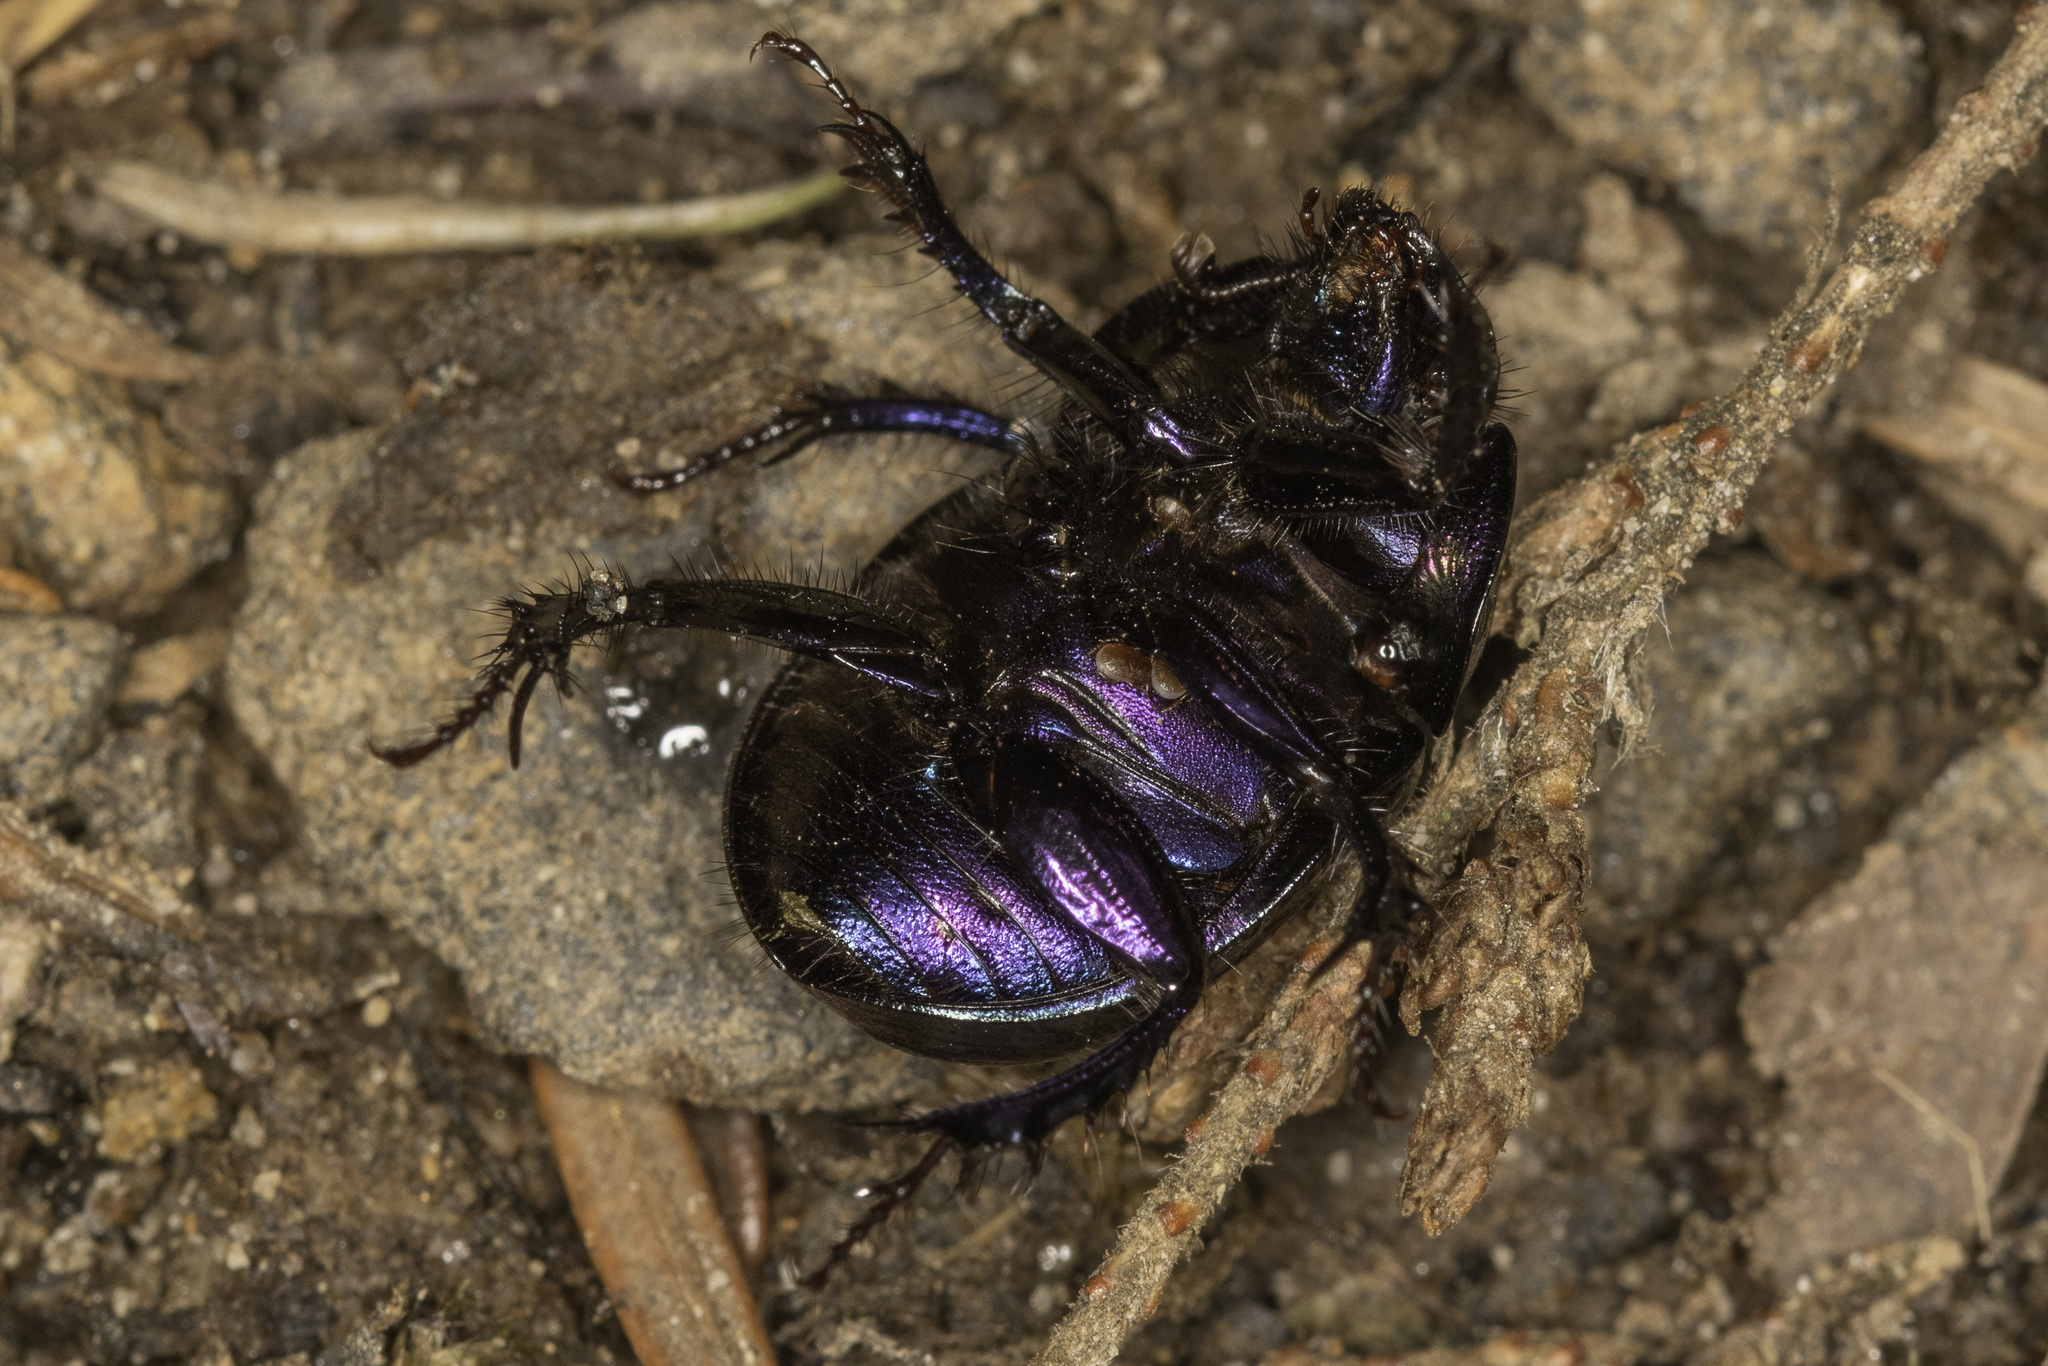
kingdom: Animalia
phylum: Arthropoda
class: Insecta
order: Coleoptera
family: Geotrupidae
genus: Anoplotrupes
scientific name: Anoplotrupes stercorosus
